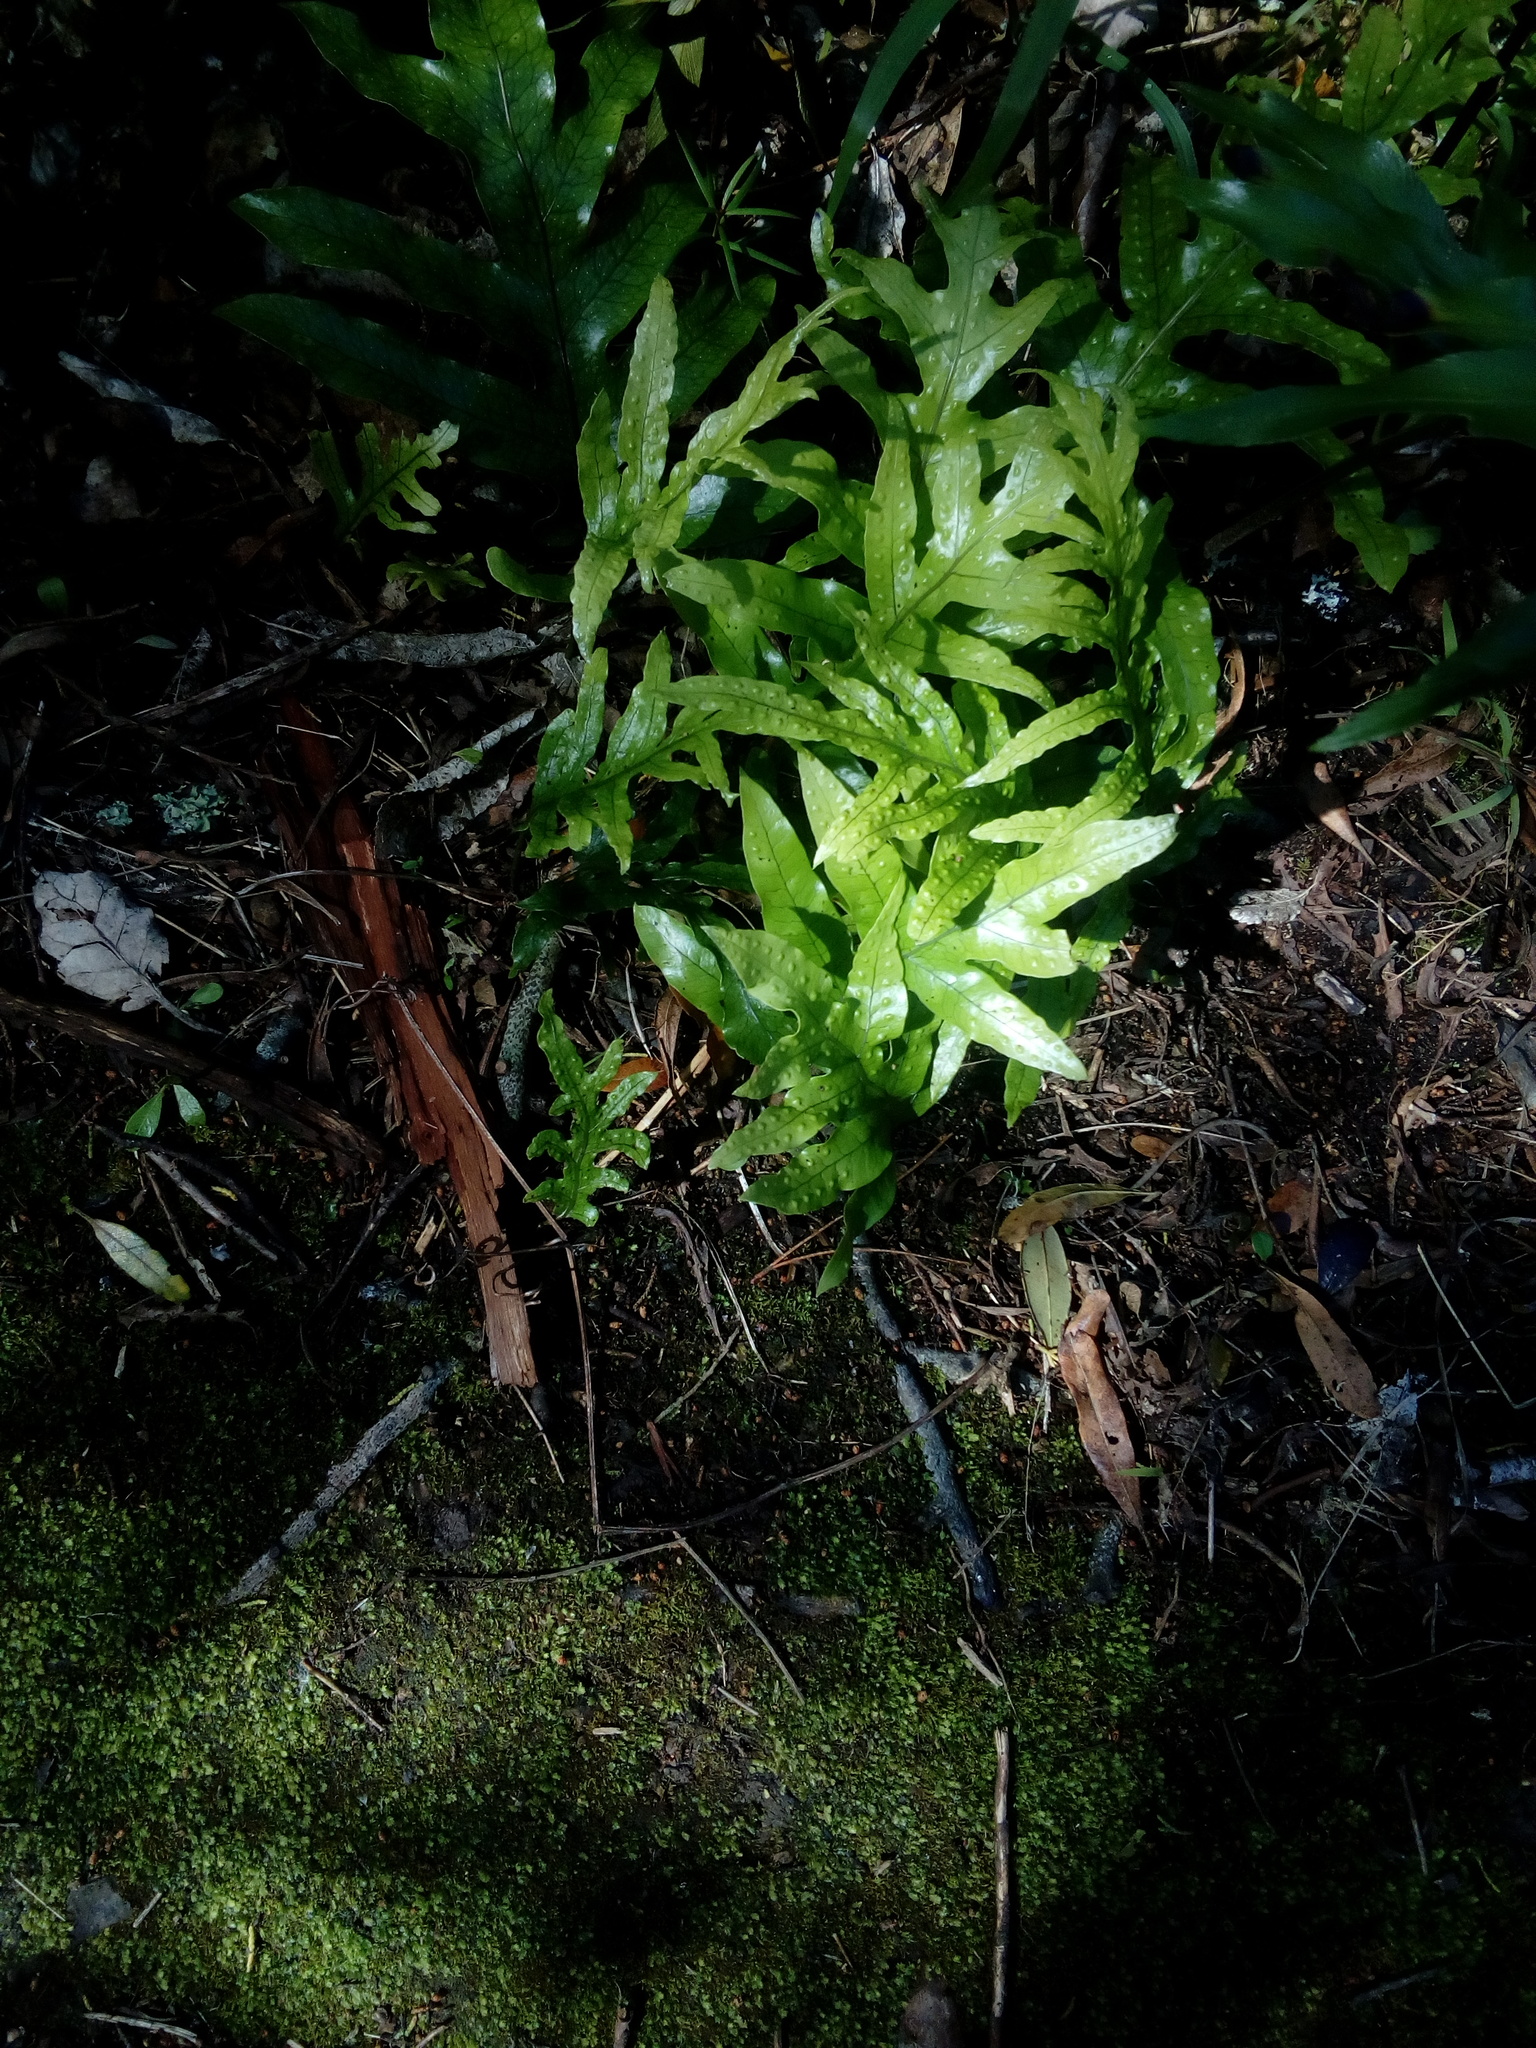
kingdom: Plantae
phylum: Tracheophyta
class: Polypodiopsida
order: Polypodiales
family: Polypodiaceae
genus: Lecanopteris
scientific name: Lecanopteris pustulata
